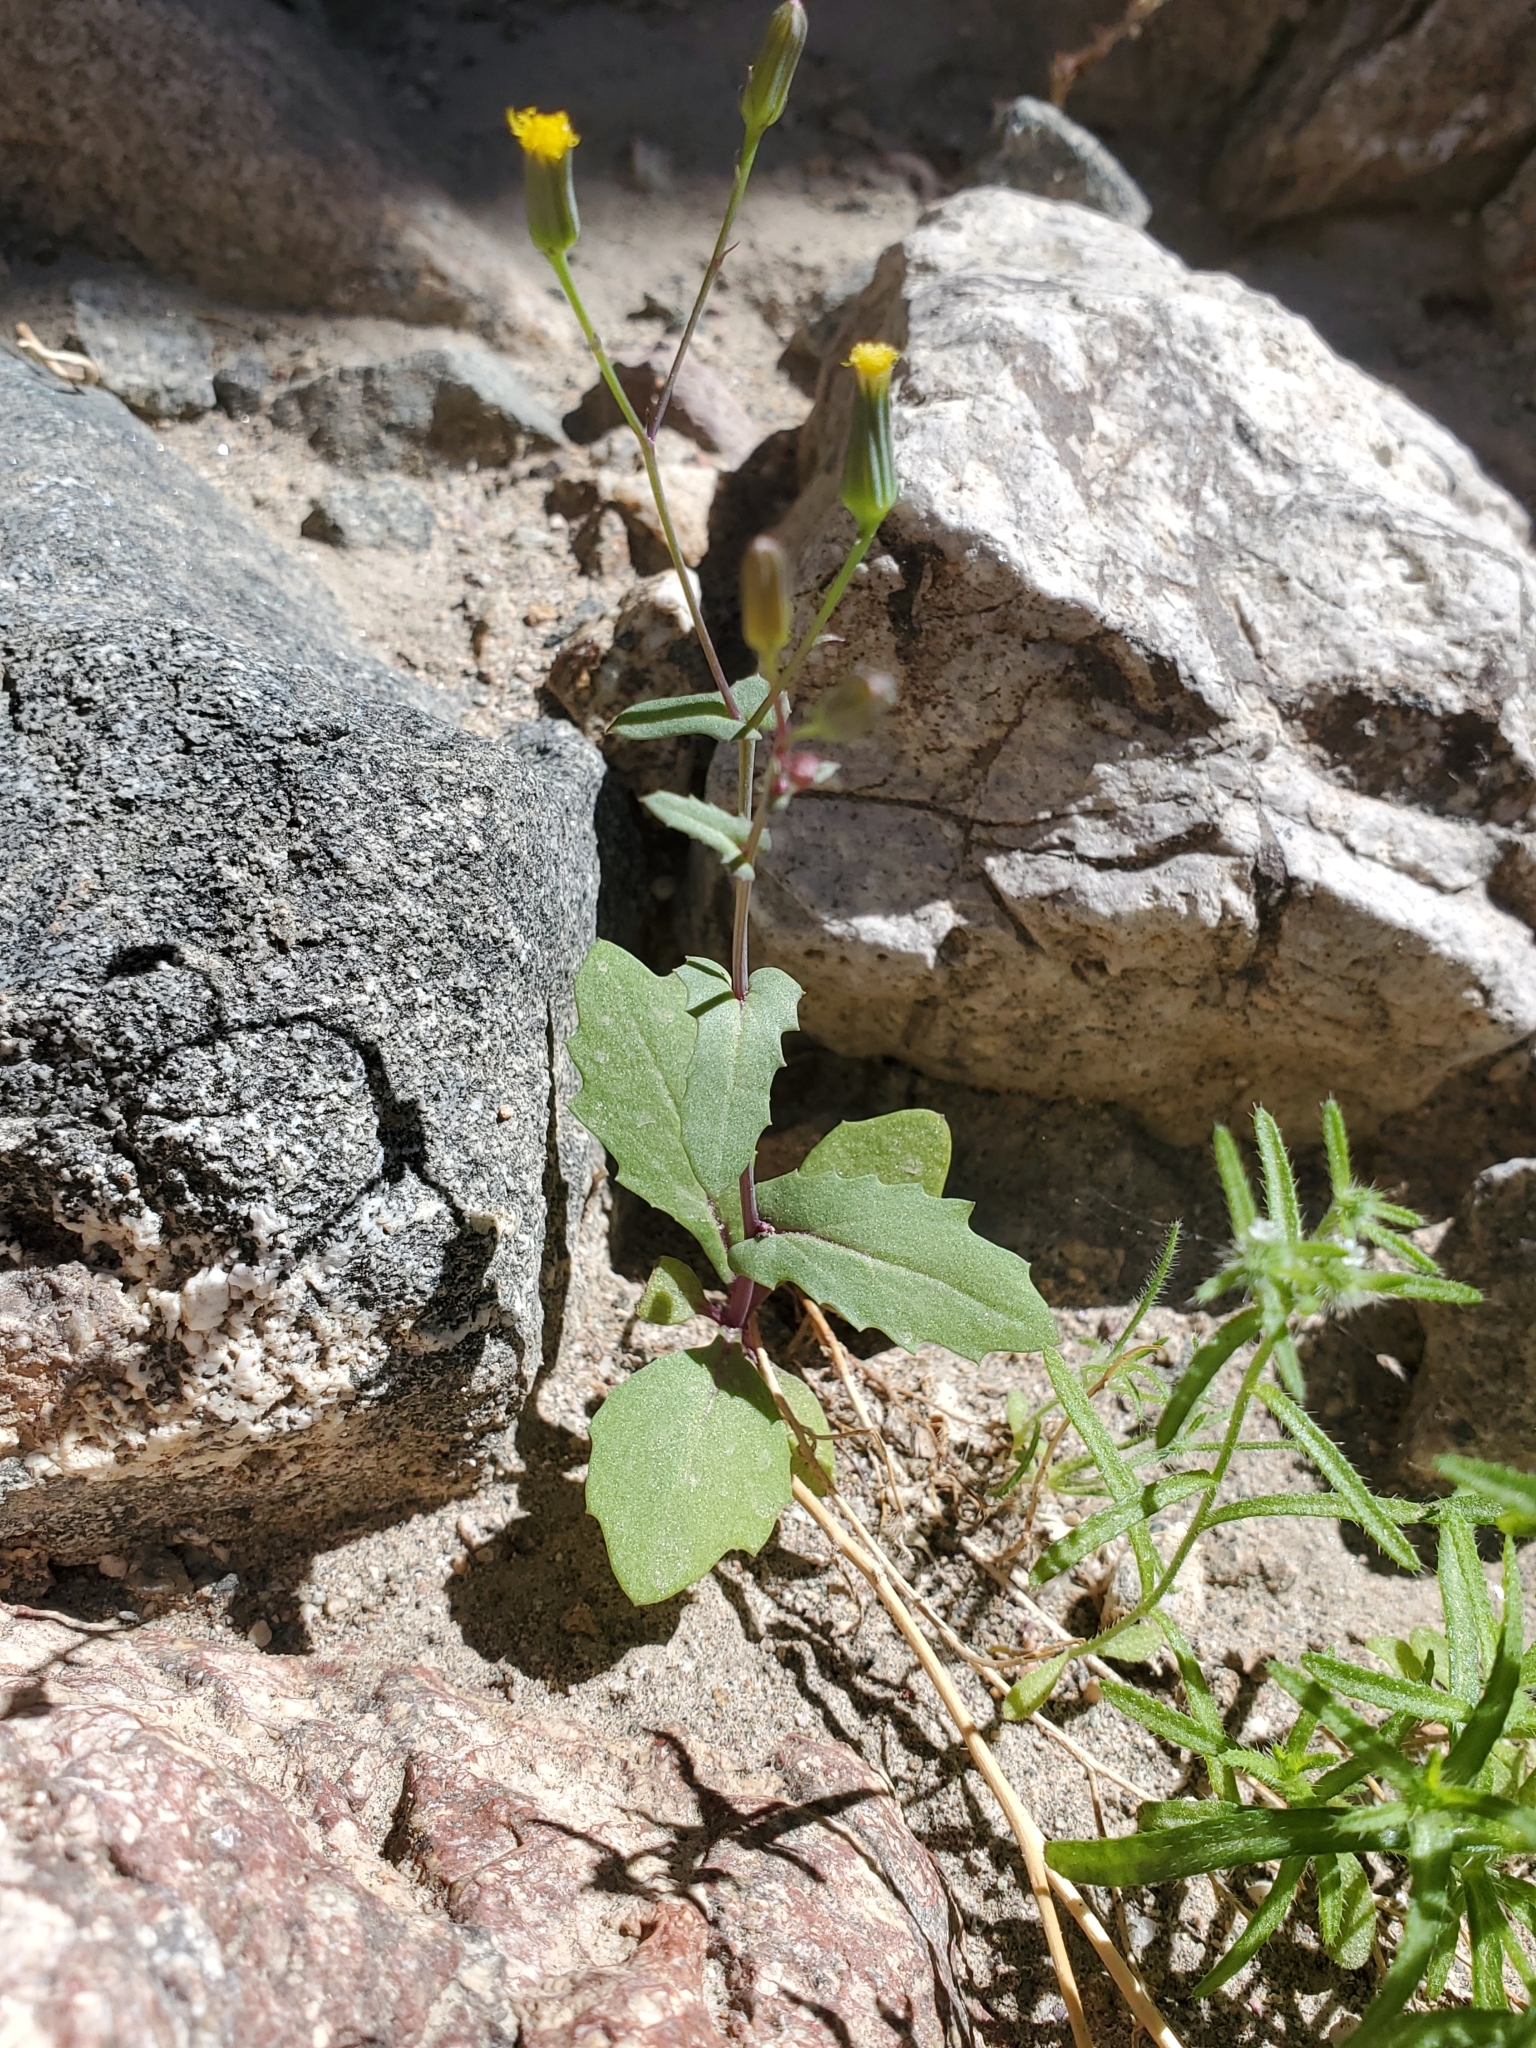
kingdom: Plantae
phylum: Tracheophyta
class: Magnoliopsida
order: Asterales
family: Asteraceae
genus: Senecio
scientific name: Senecio mohavensis
